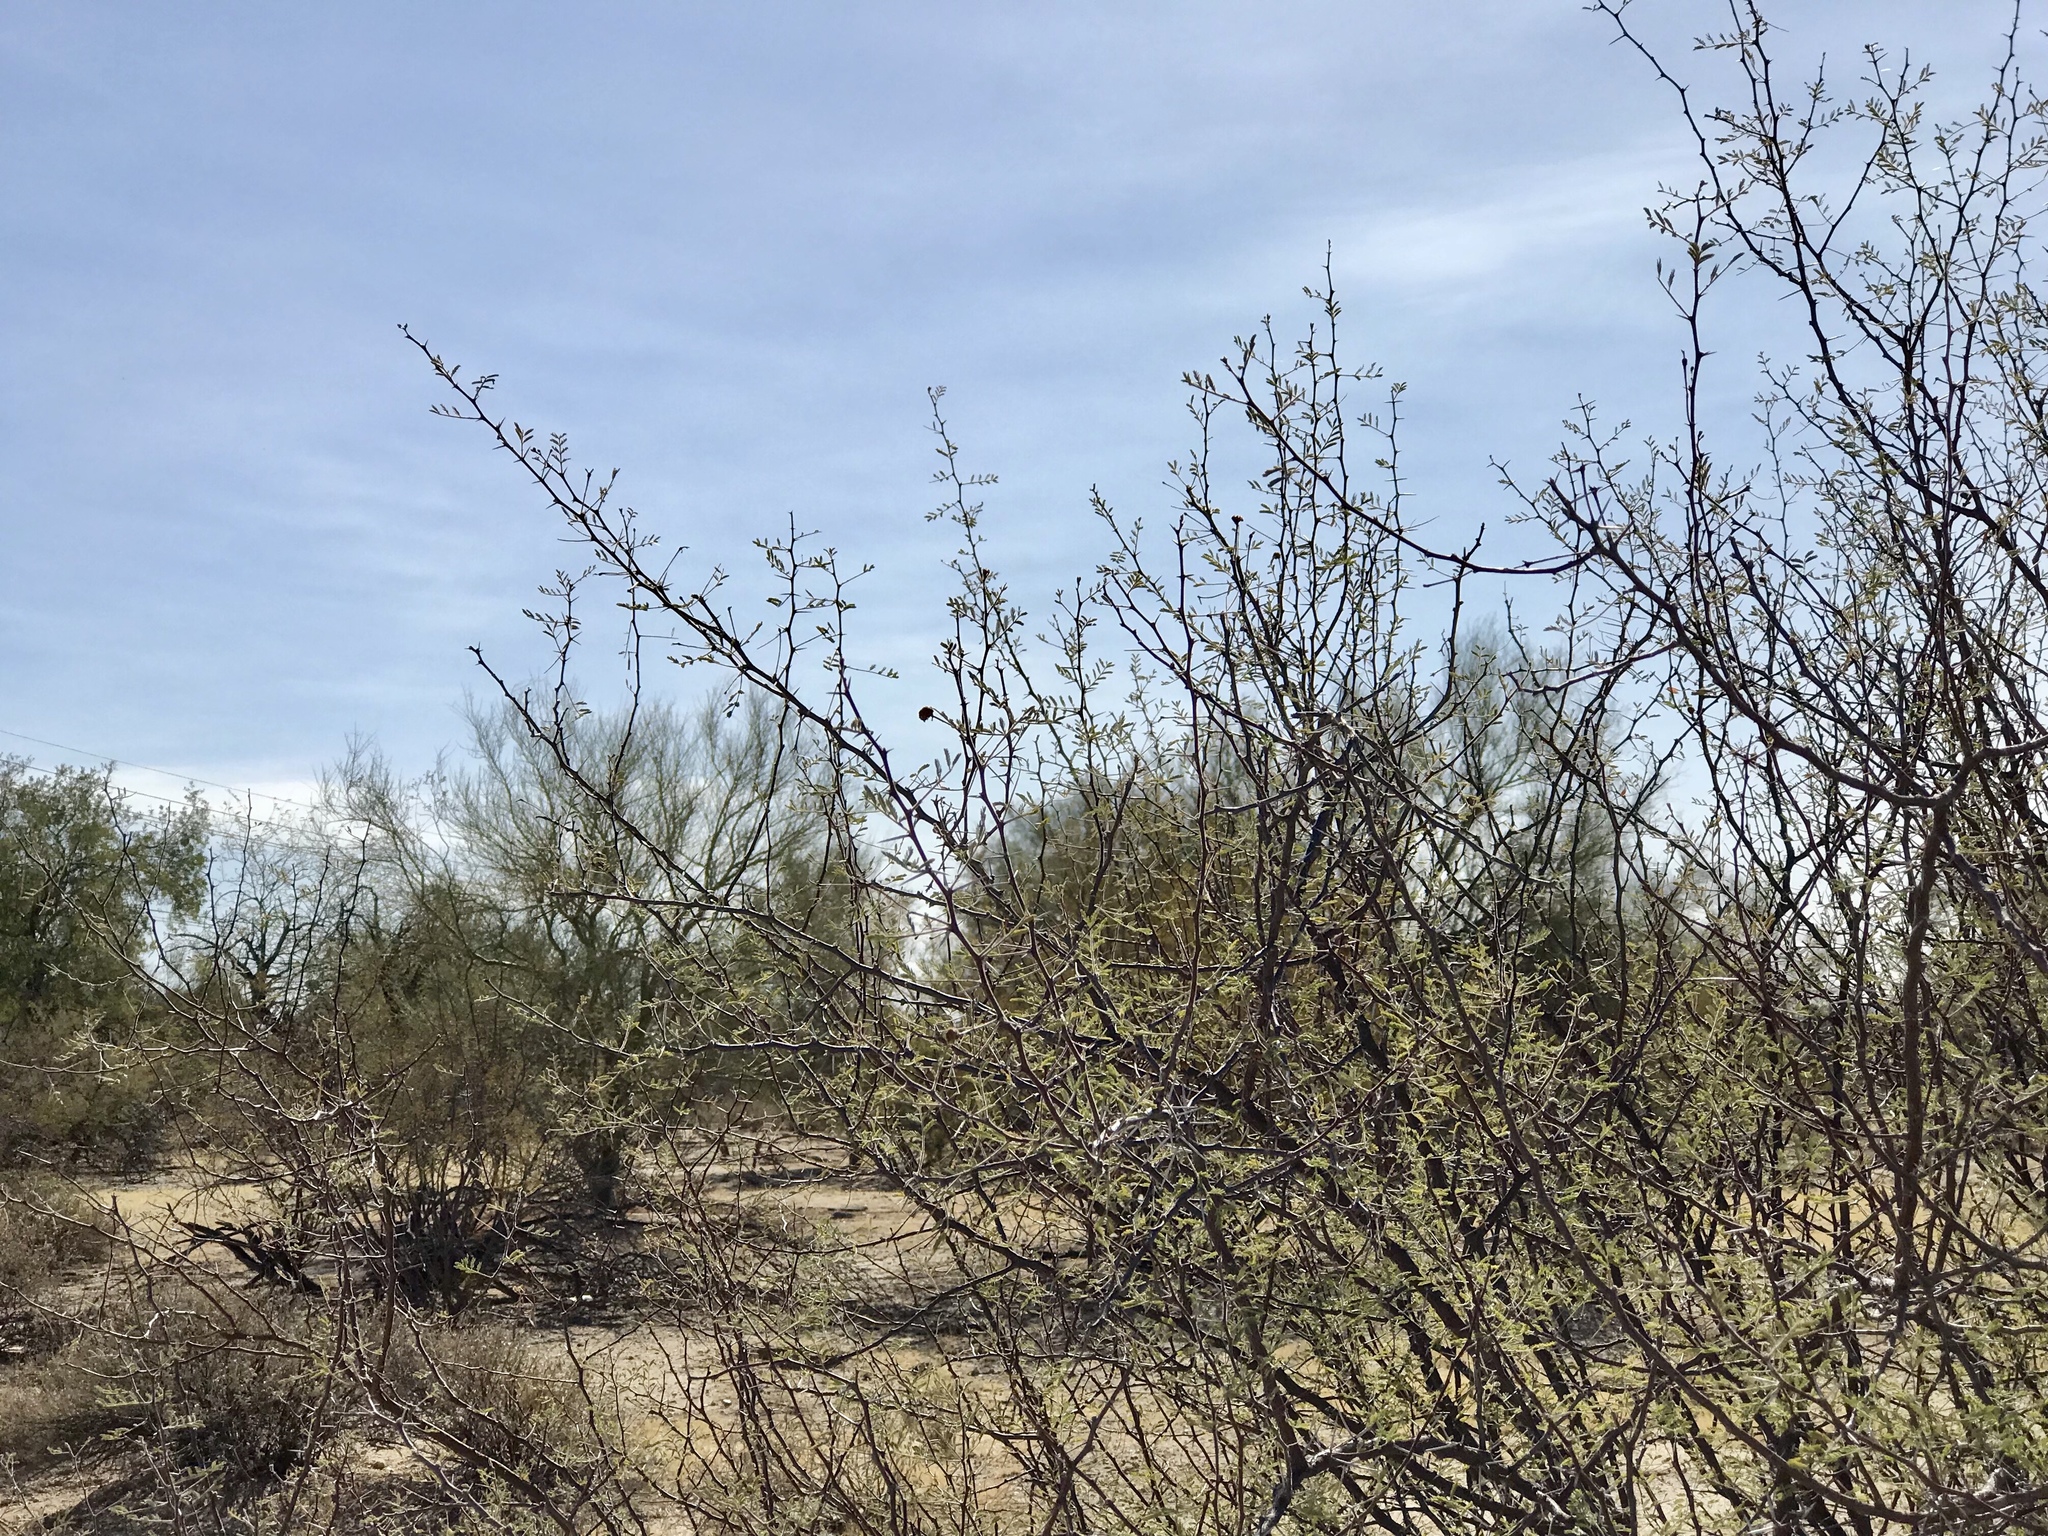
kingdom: Plantae
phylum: Tracheophyta
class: Magnoliopsida
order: Fabales
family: Fabaceae
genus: Vachellia
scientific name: Vachellia constricta
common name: Mescat acacia
